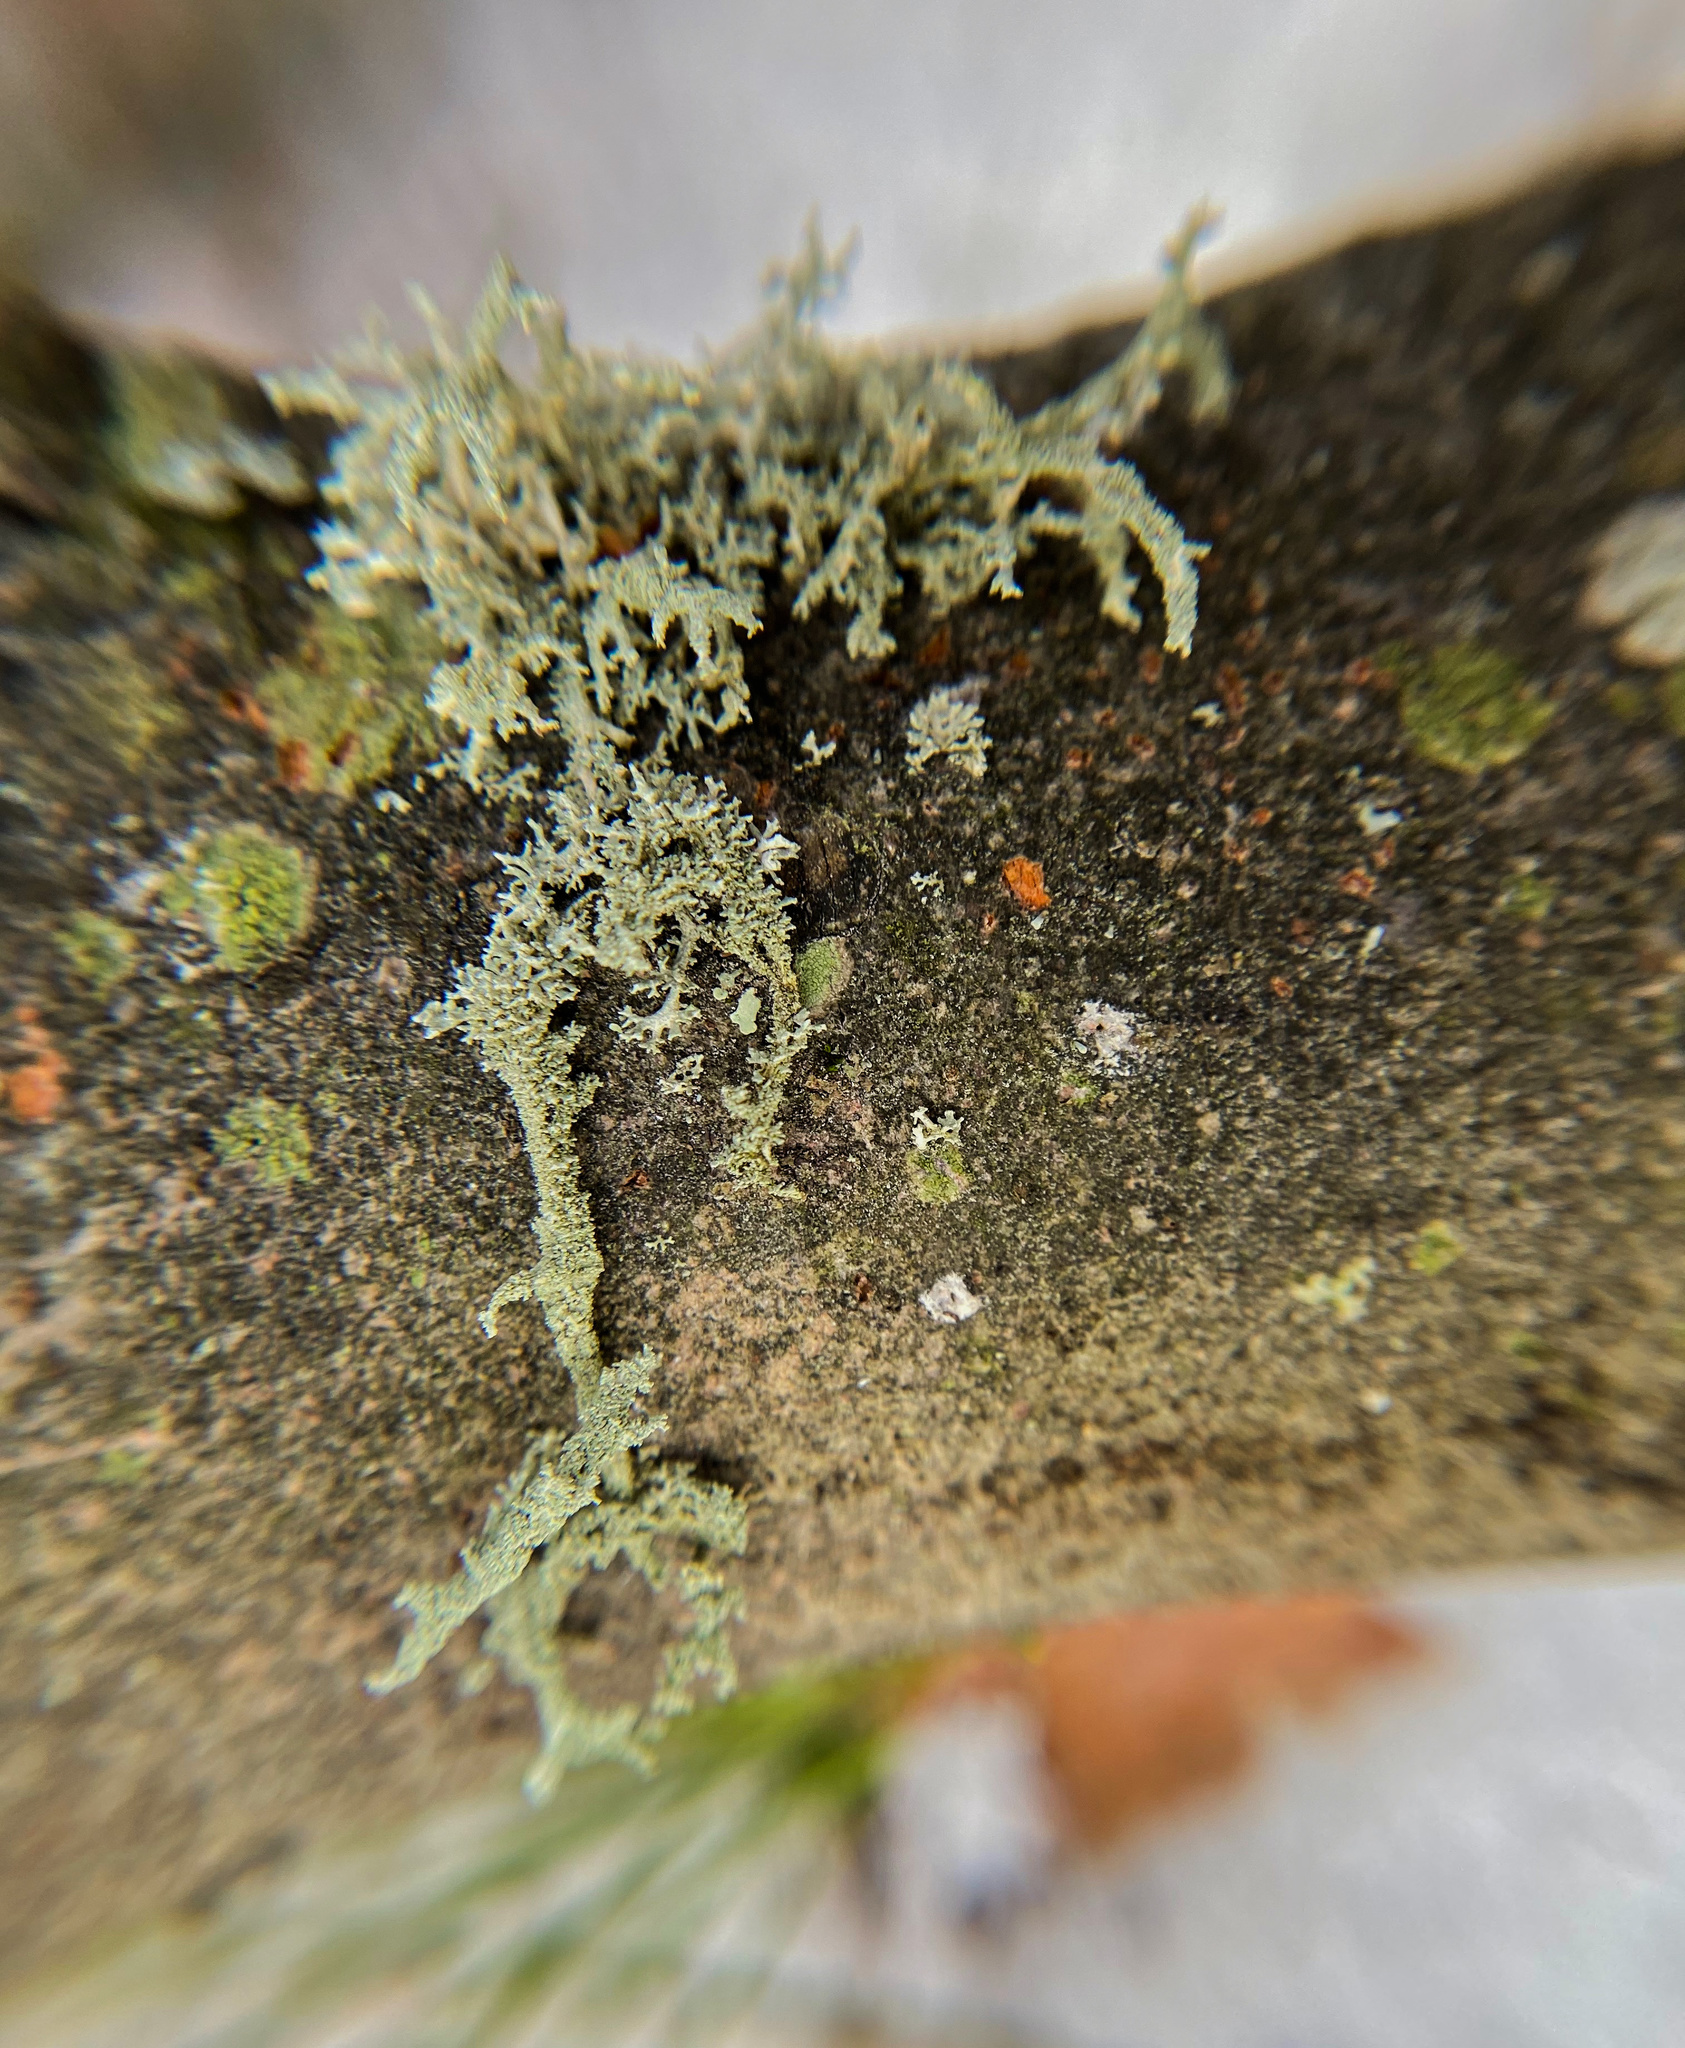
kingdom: Fungi
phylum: Ascomycota
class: Lecanoromycetes
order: Lecanorales
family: Parmeliaceae
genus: Evernia
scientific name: Evernia mesomorpha
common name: Boreal oak moss lichen
